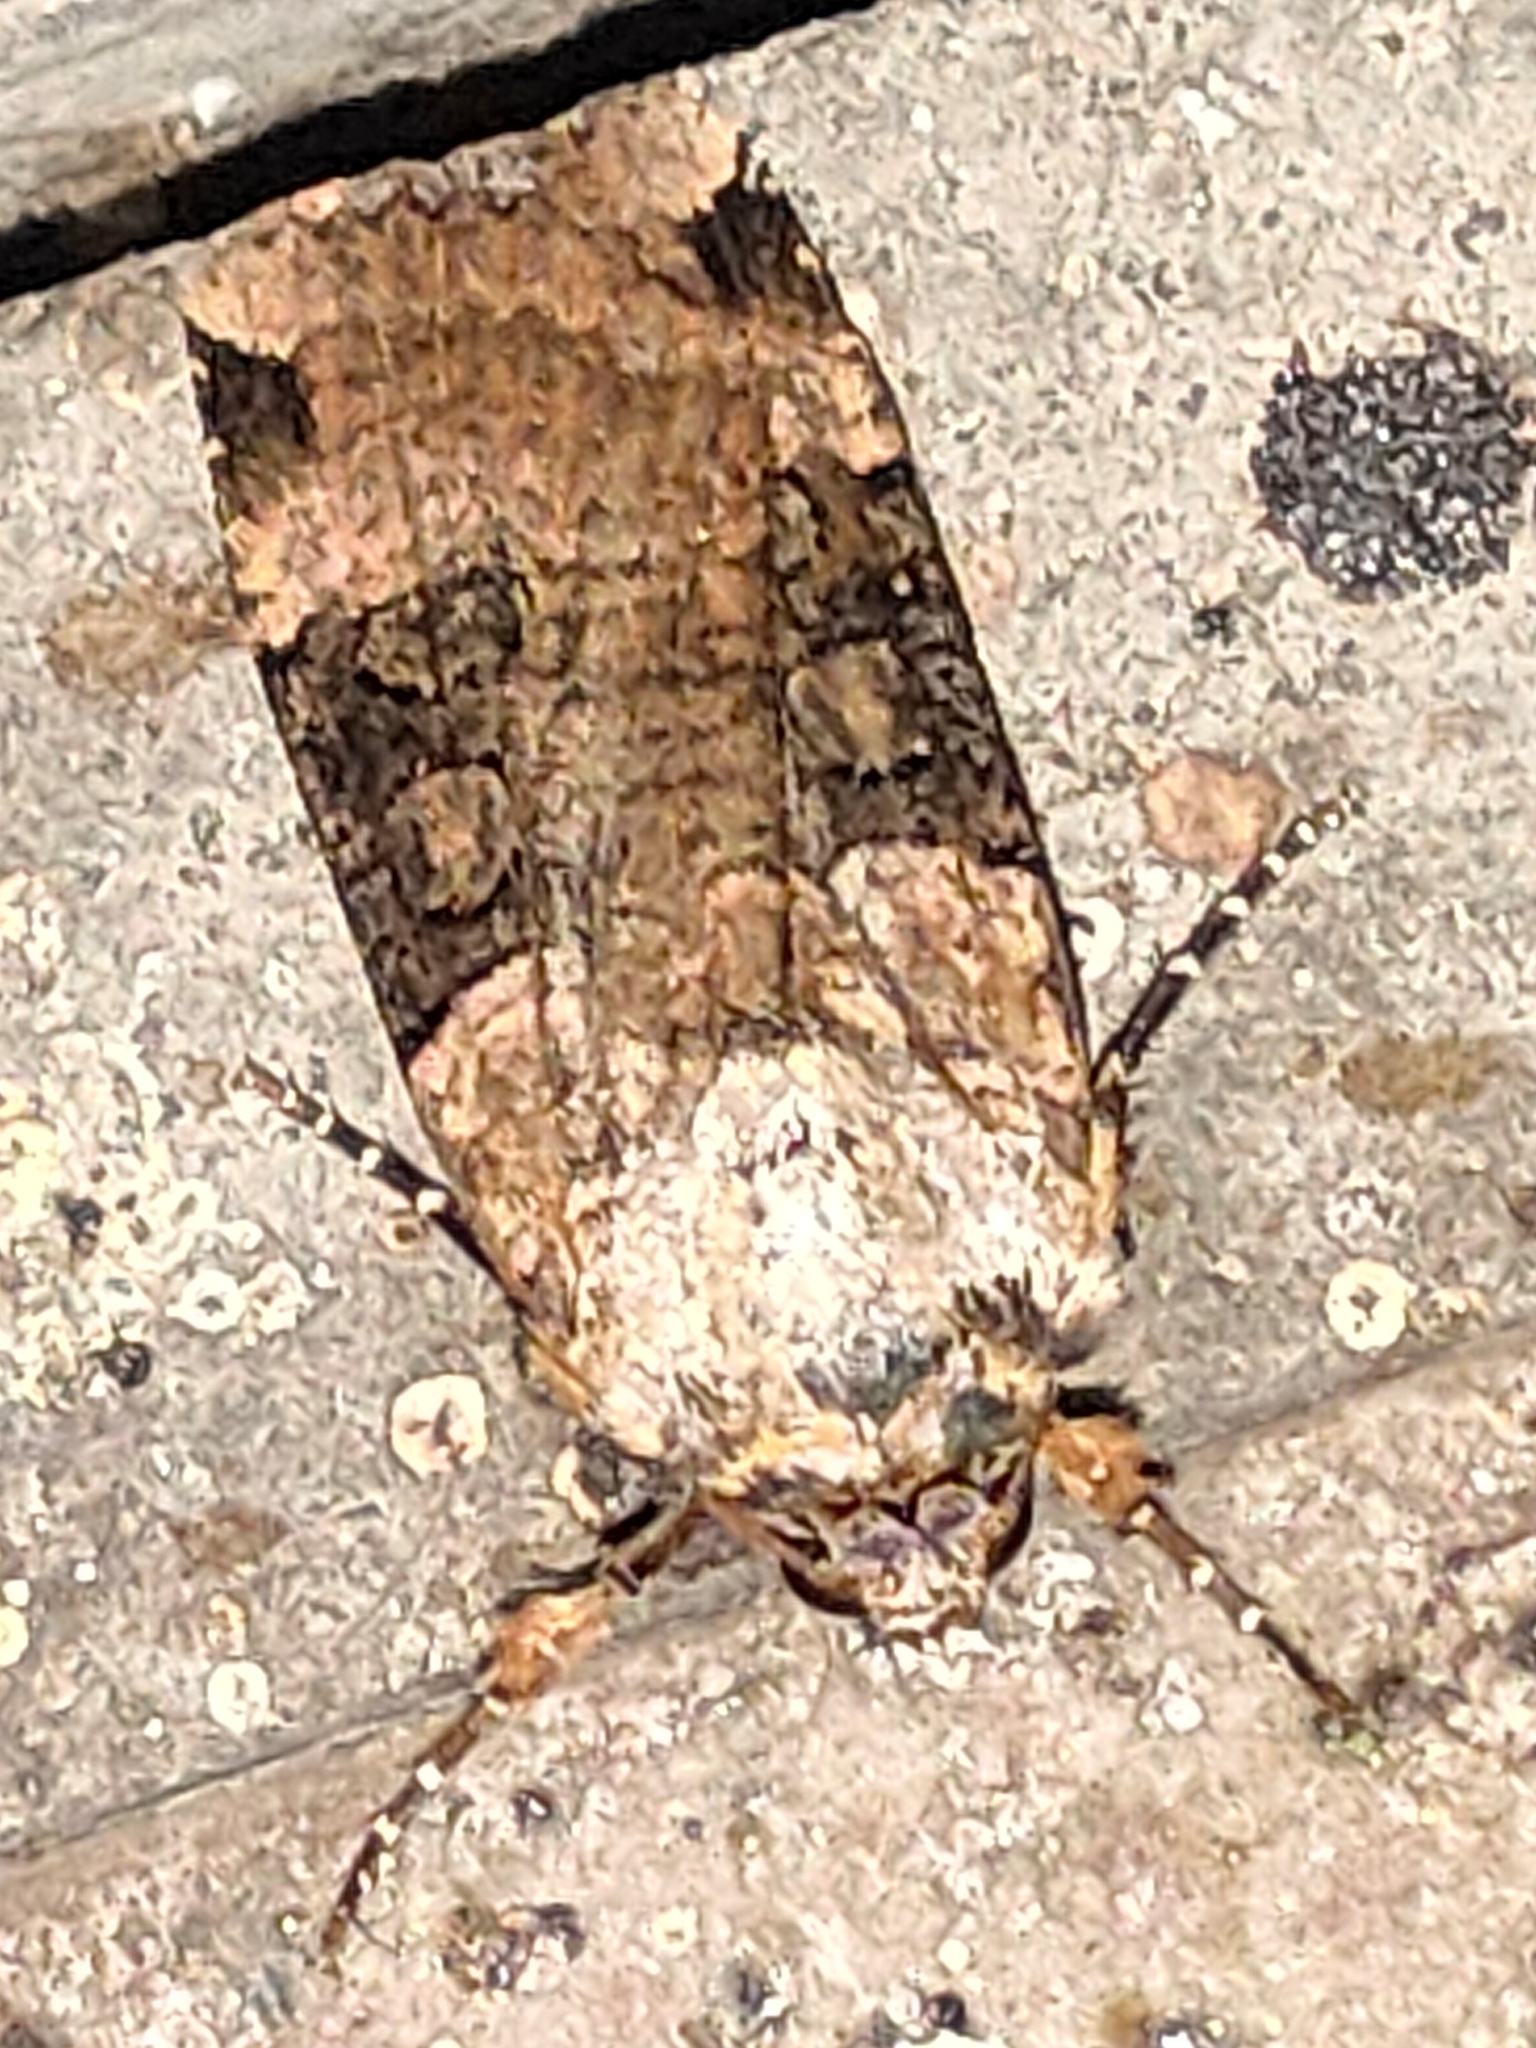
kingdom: Animalia
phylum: Arthropoda
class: Insecta
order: Lepidoptera
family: Noctuidae
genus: Xestia
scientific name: Xestia undosa
